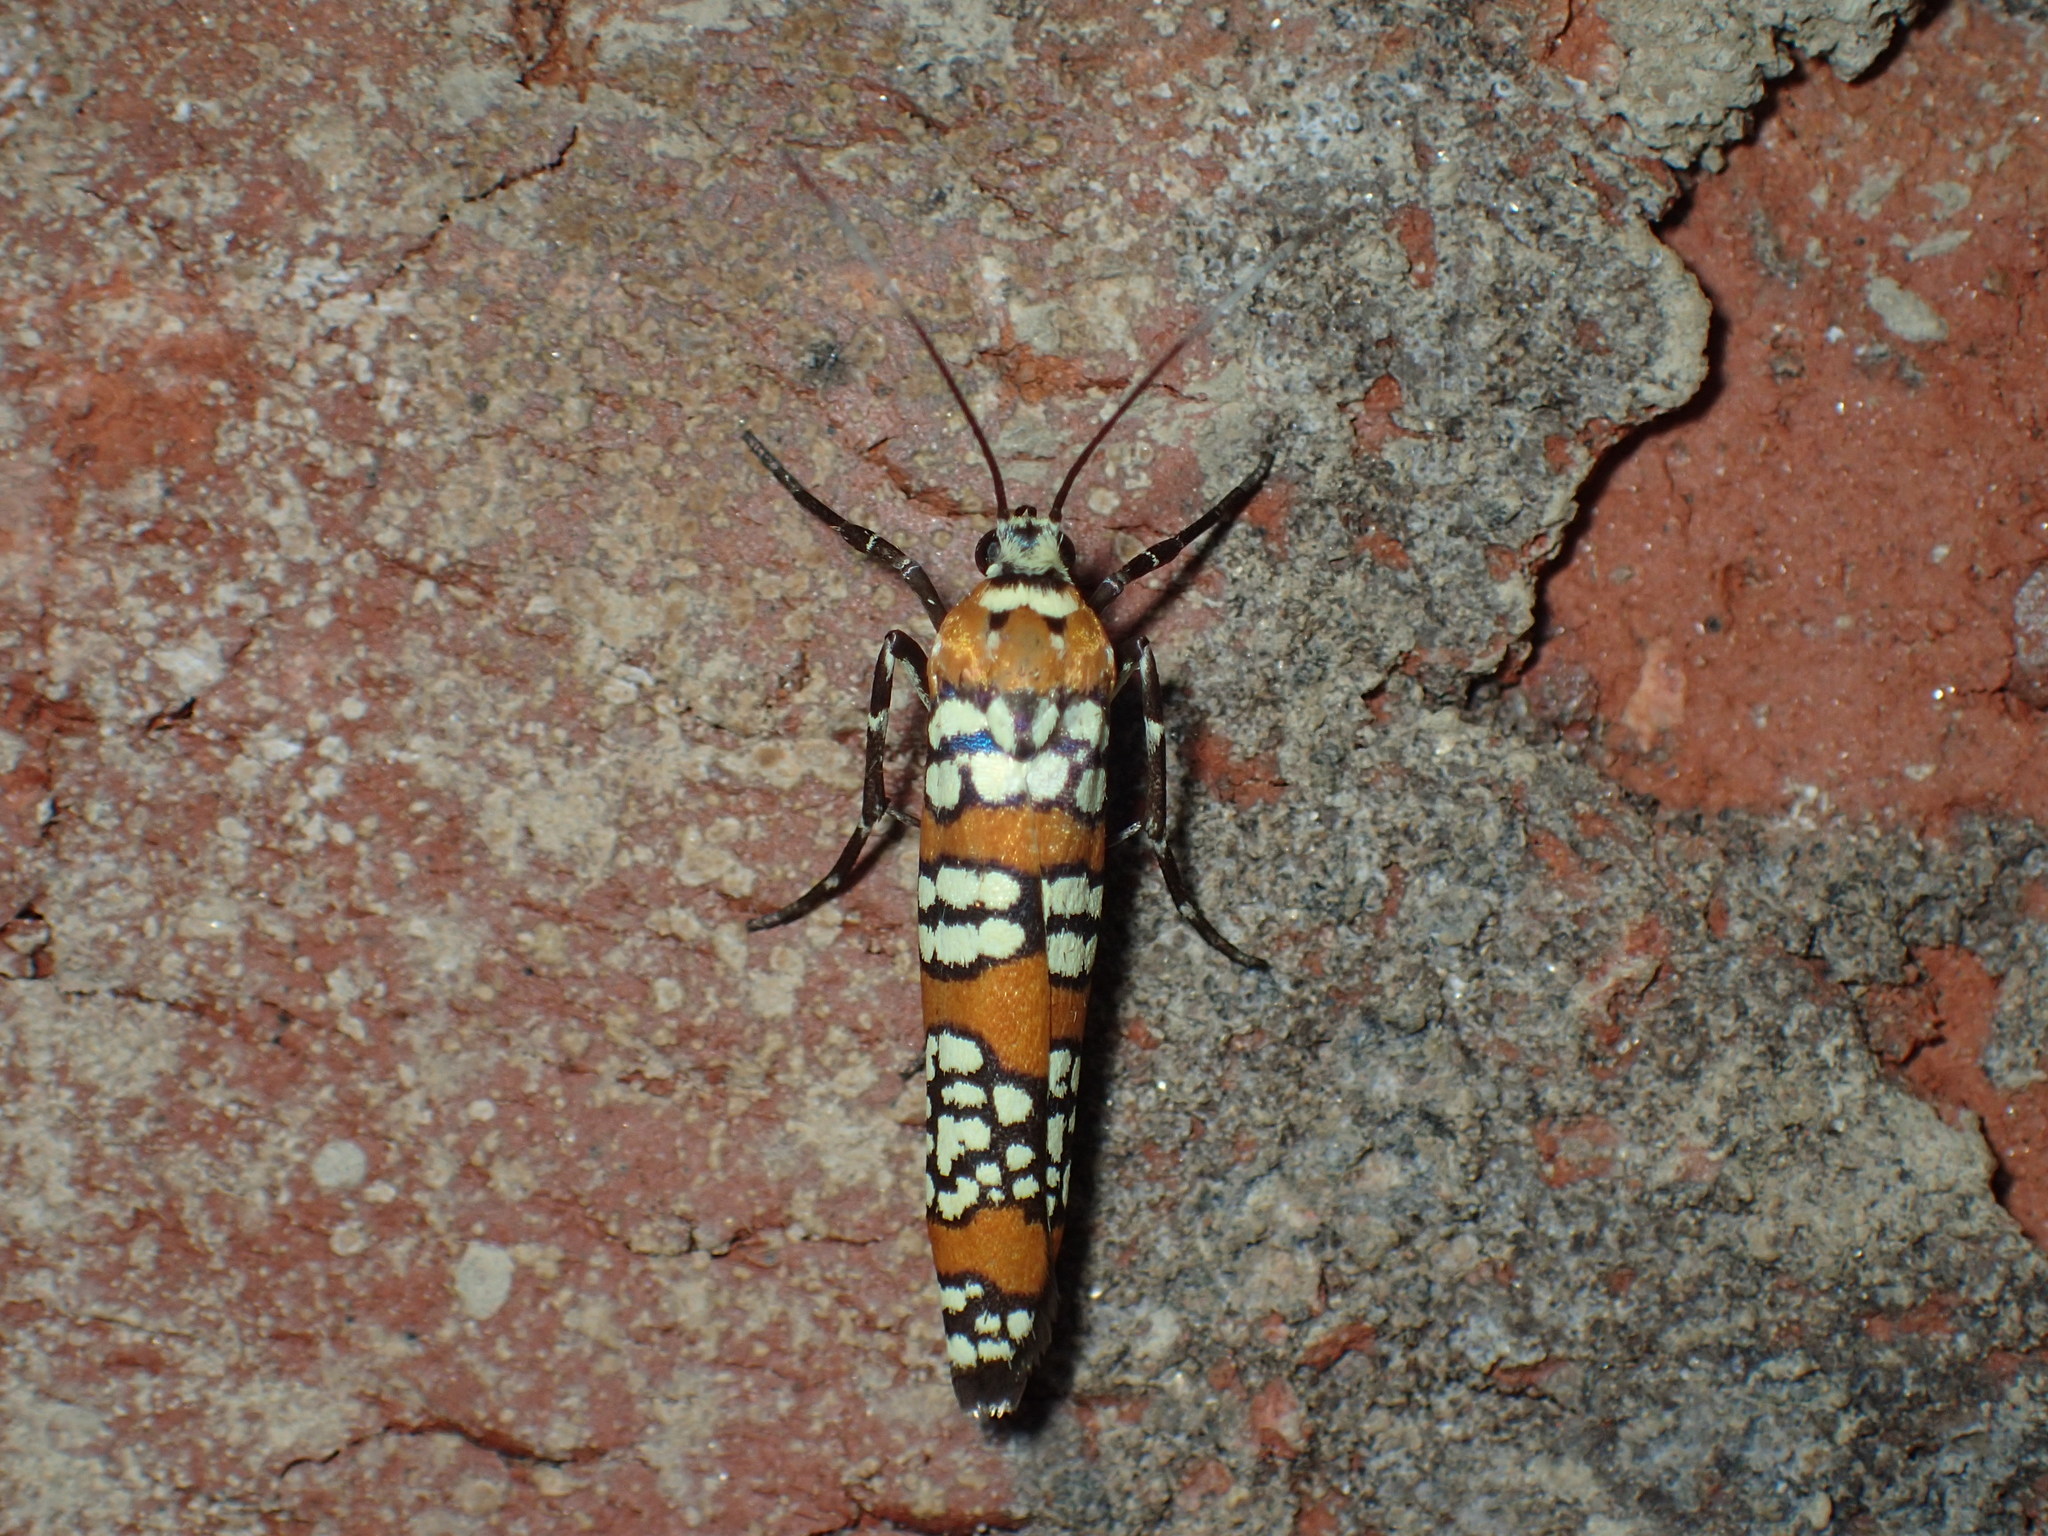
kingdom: Animalia
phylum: Arthropoda
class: Insecta
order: Lepidoptera
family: Attevidae
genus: Atteva
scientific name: Atteva punctella
